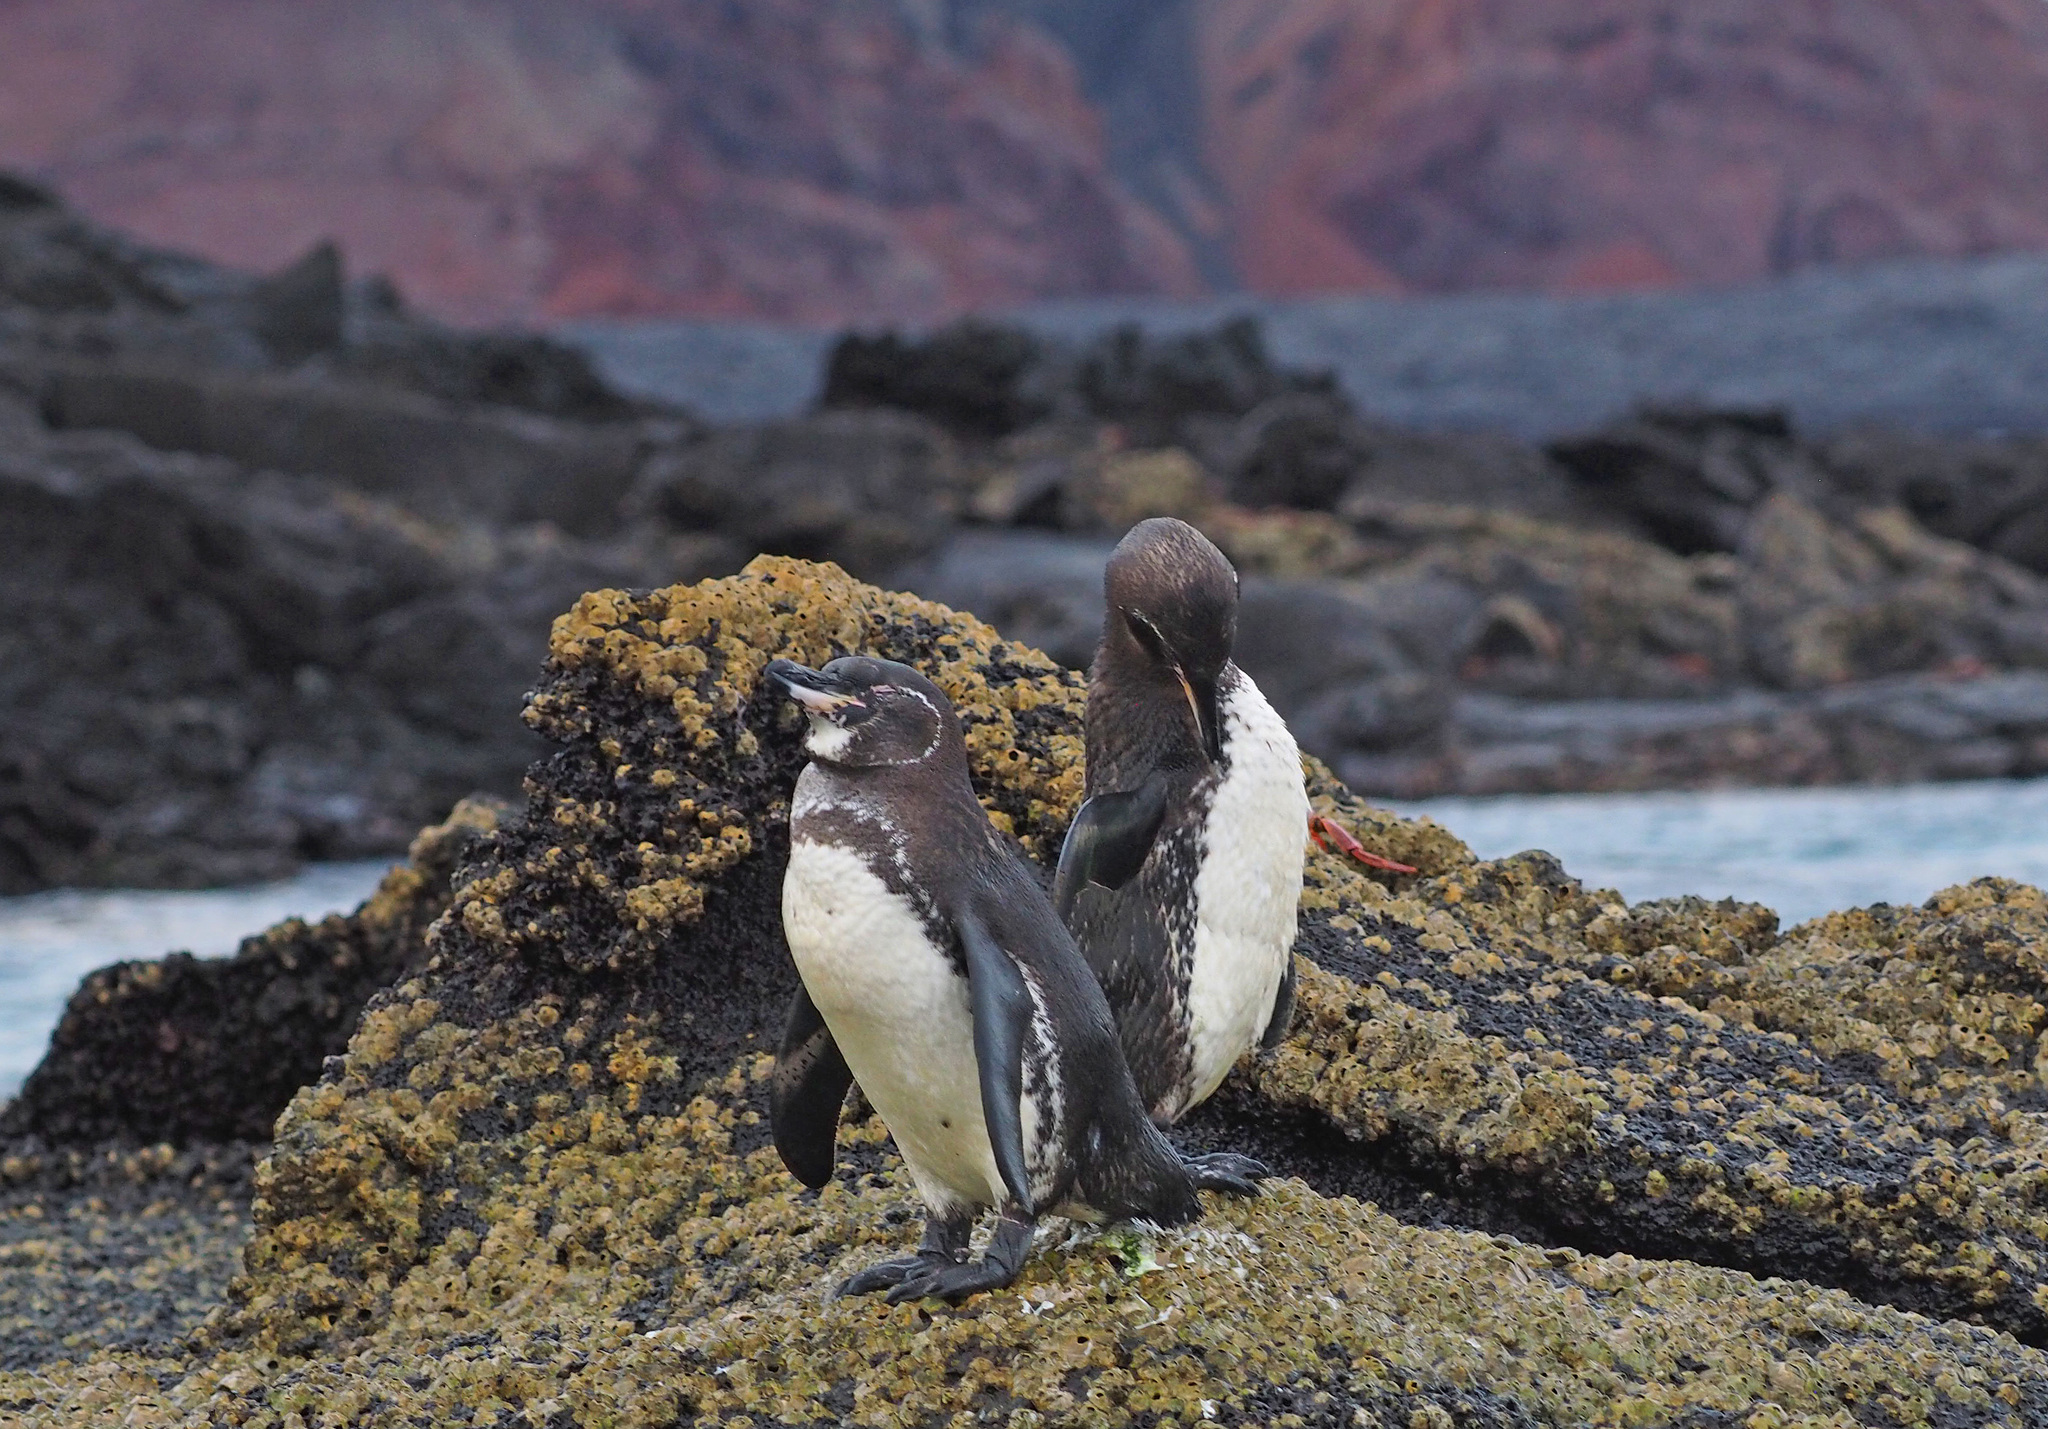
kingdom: Animalia
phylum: Chordata
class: Aves
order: Sphenisciformes
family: Spheniscidae
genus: Spheniscus
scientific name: Spheniscus mendiculus
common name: Galapagos penguin
